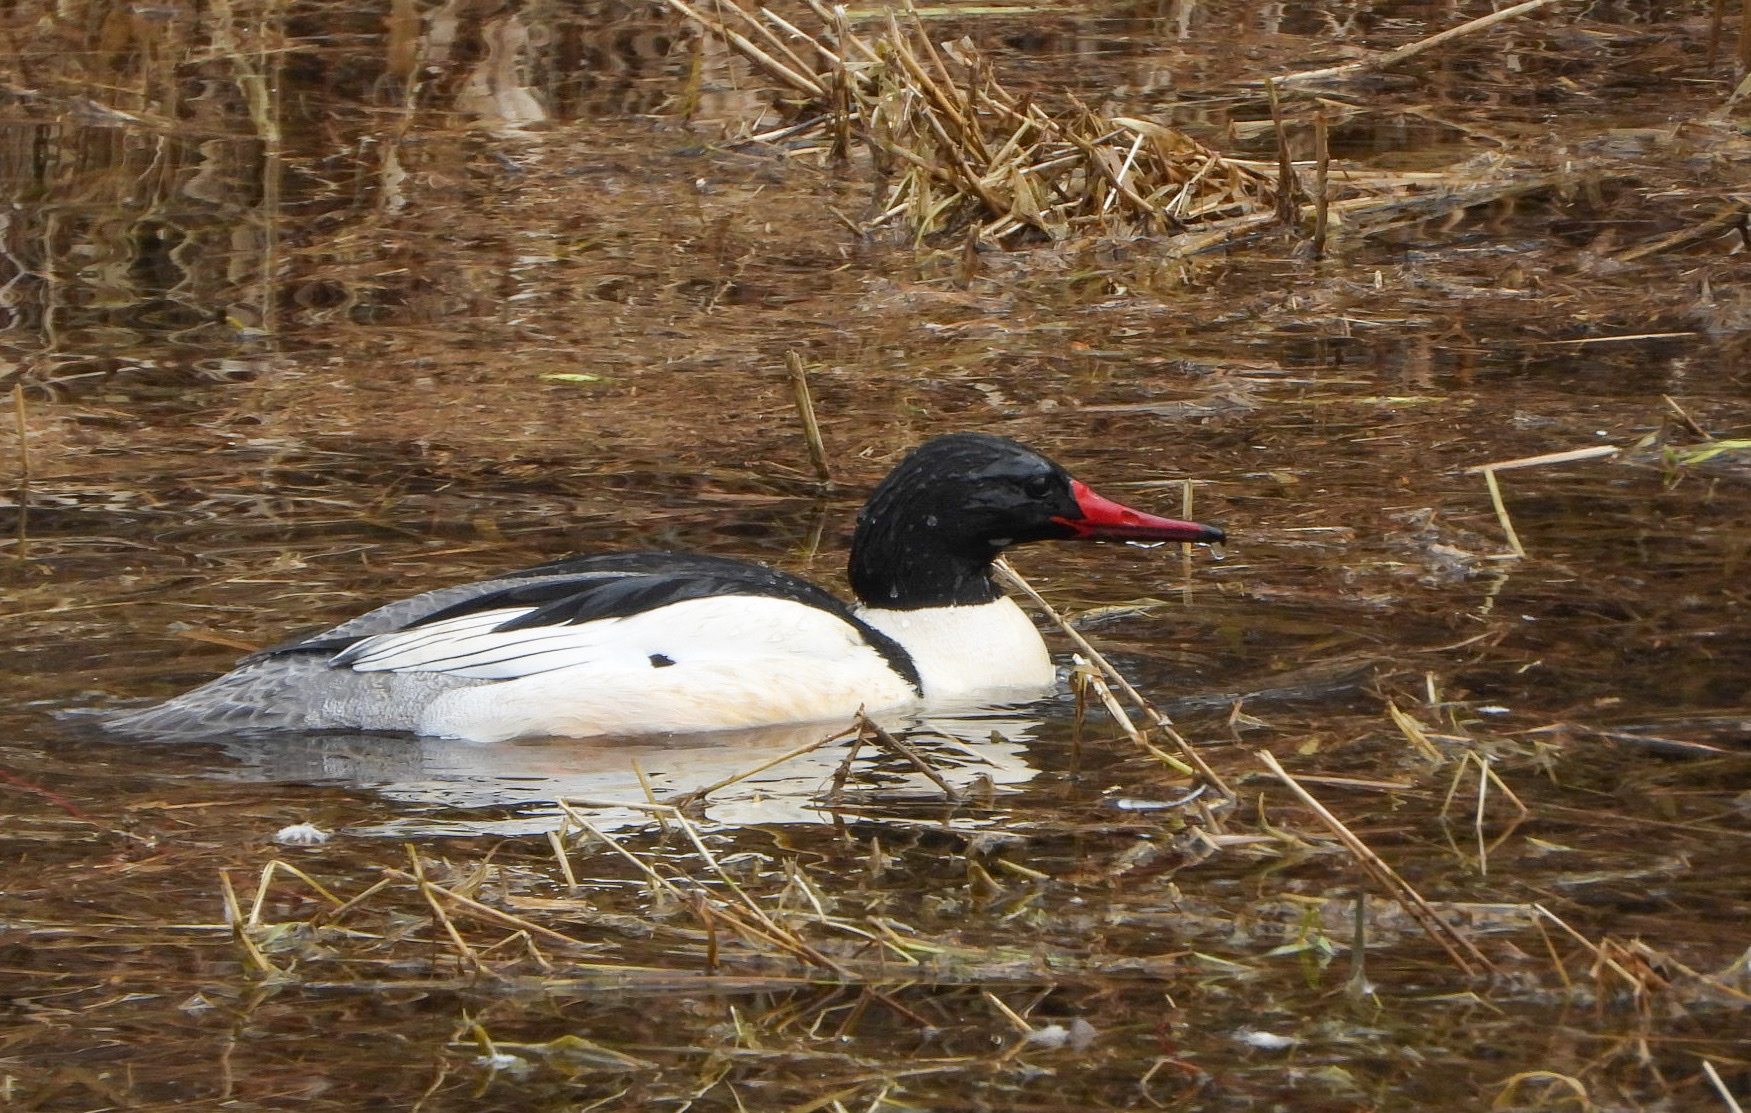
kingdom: Animalia
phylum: Chordata
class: Aves
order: Anseriformes
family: Anatidae
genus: Mergus
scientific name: Mergus merganser
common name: Common merganser
